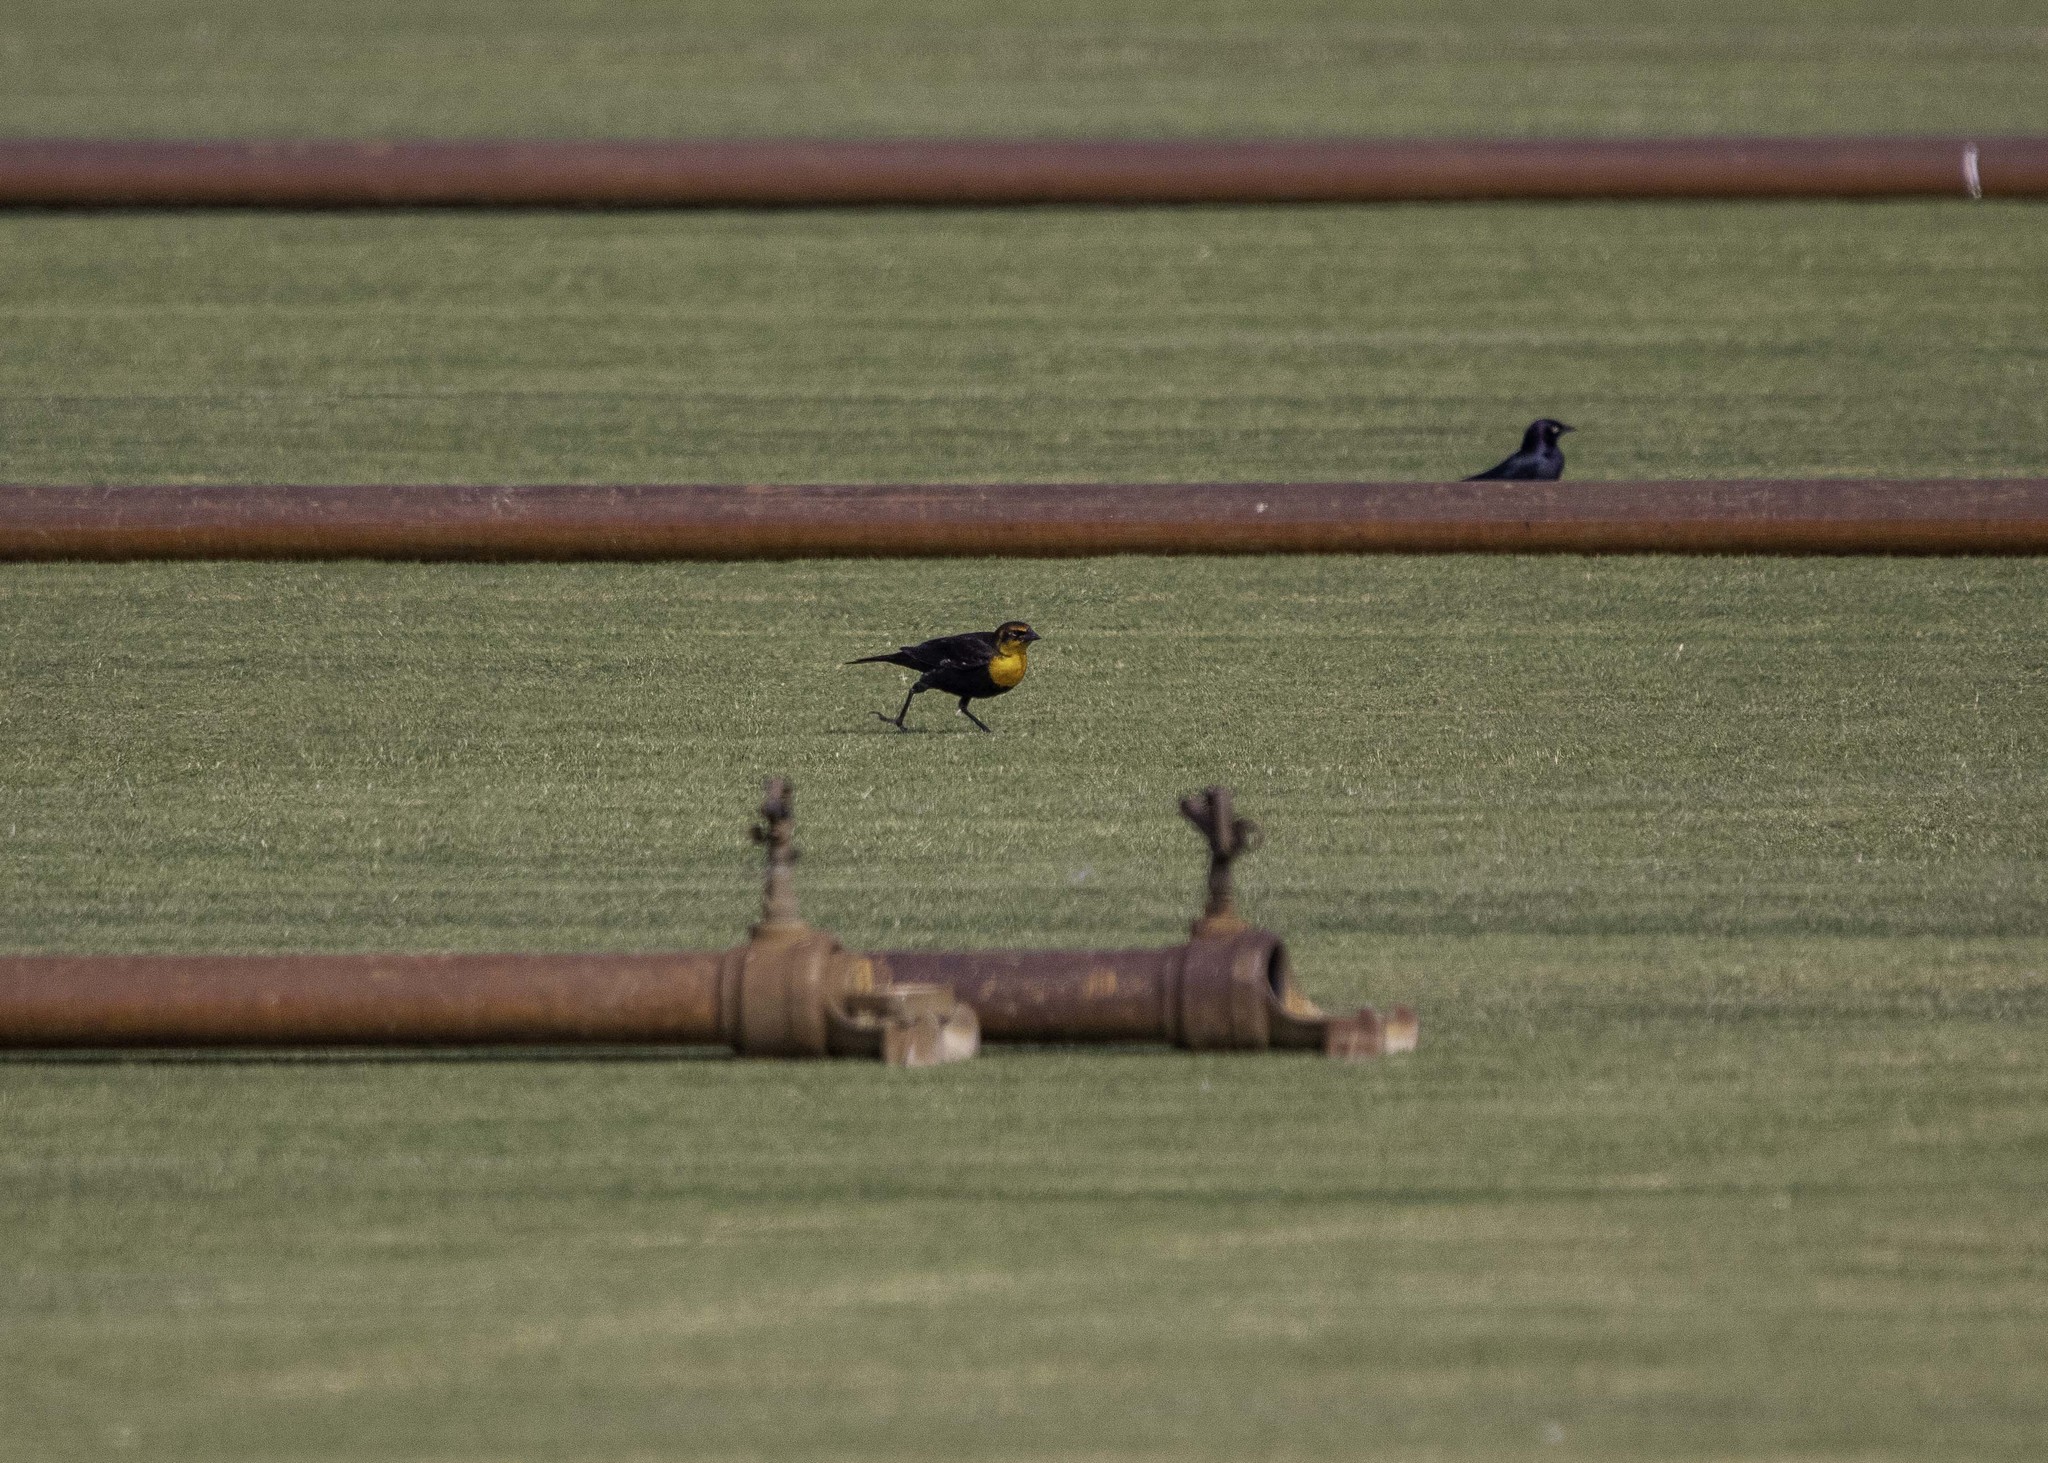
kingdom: Animalia
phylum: Chordata
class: Aves
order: Passeriformes
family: Icteridae
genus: Xanthocephalus
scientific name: Xanthocephalus xanthocephalus
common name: Yellow-headed blackbird
